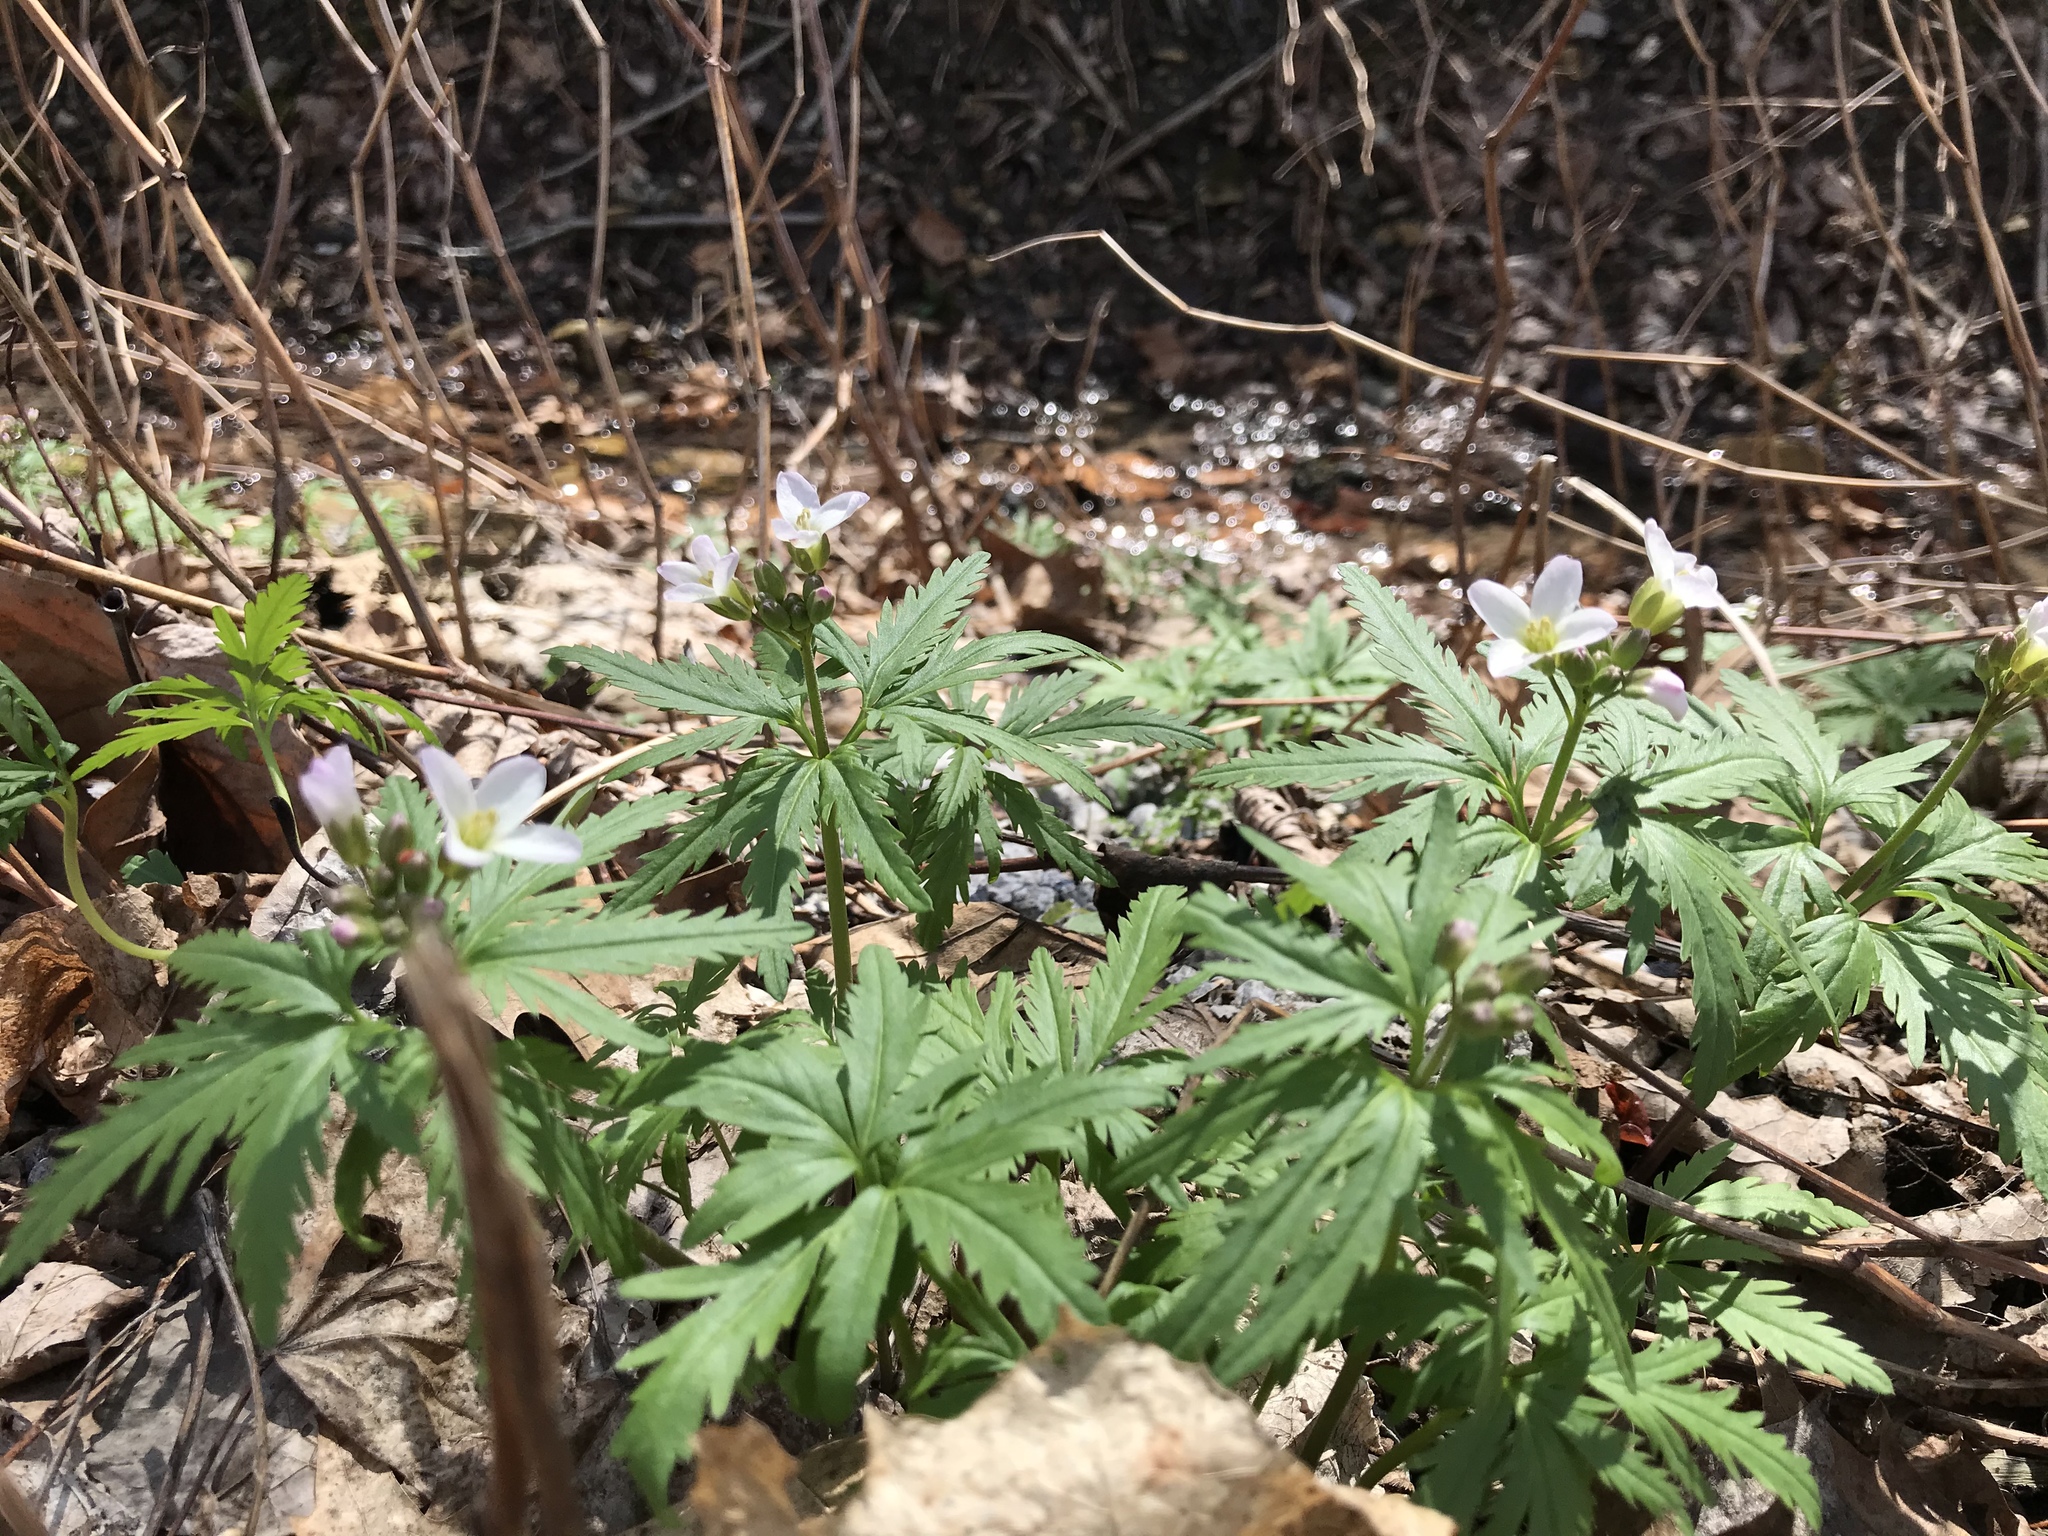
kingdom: Plantae
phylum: Tracheophyta
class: Magnoliopsida
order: Brassicales
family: Brassicaceae
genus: Cardamine
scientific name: Cardamine concatenata
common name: Cut-leaf toothcup
